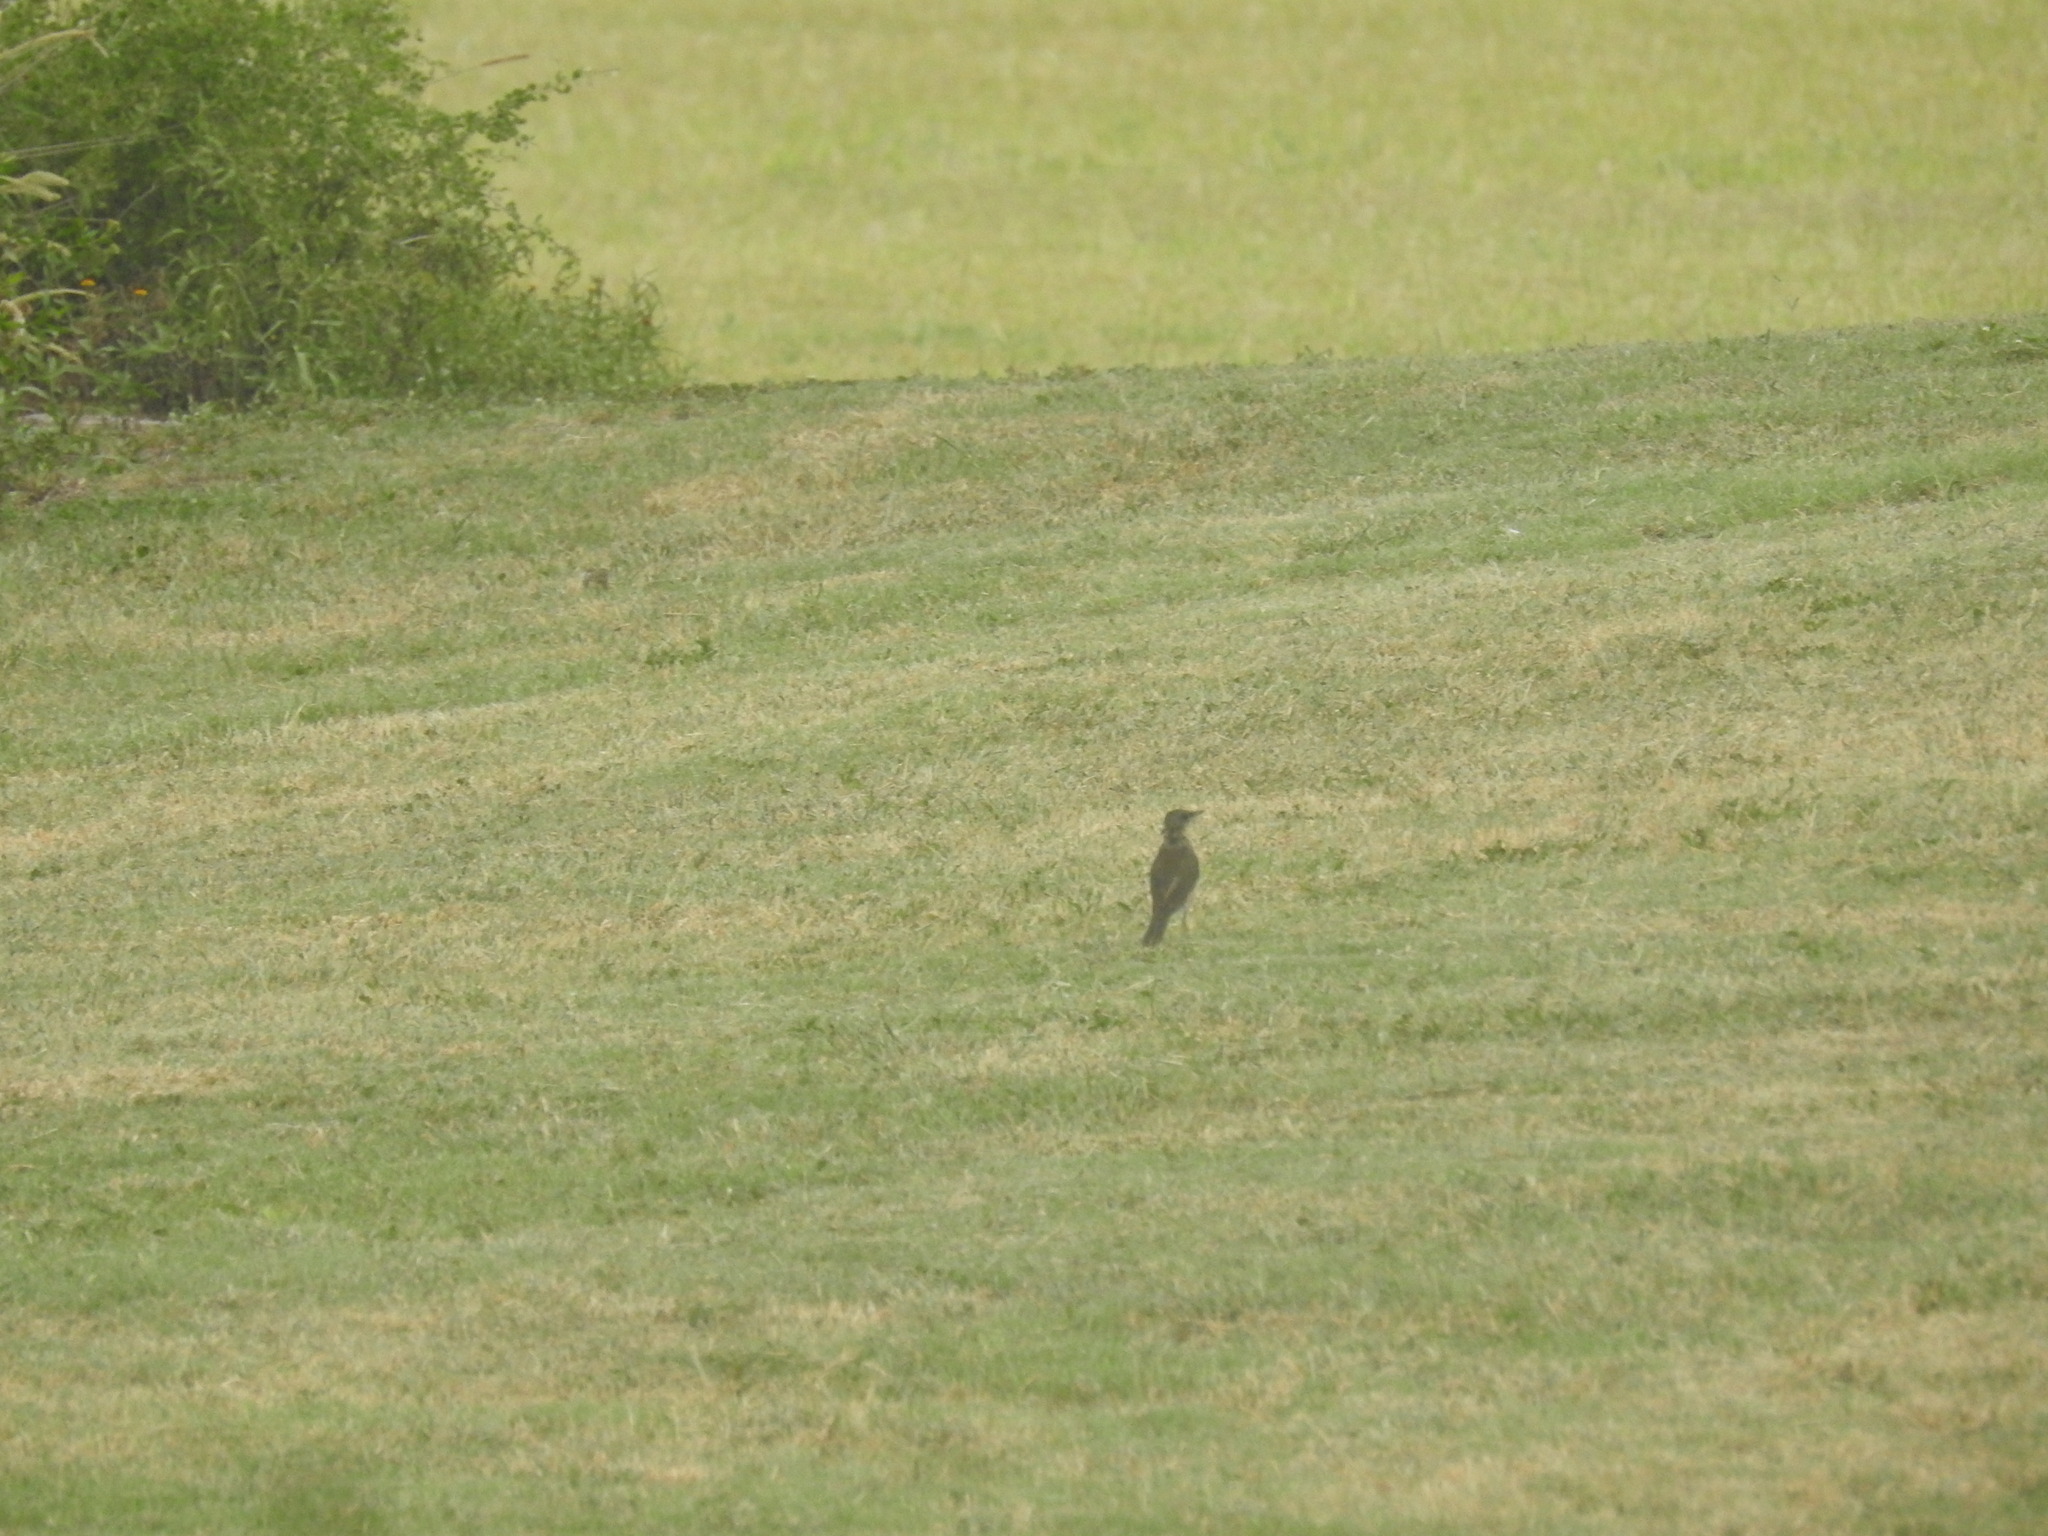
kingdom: Animalia
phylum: Chordata
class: Aves
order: Passeriformes
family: Turdidae
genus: Turdus
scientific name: Turdus amaurochalinus
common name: Creamy-bellied thrush
